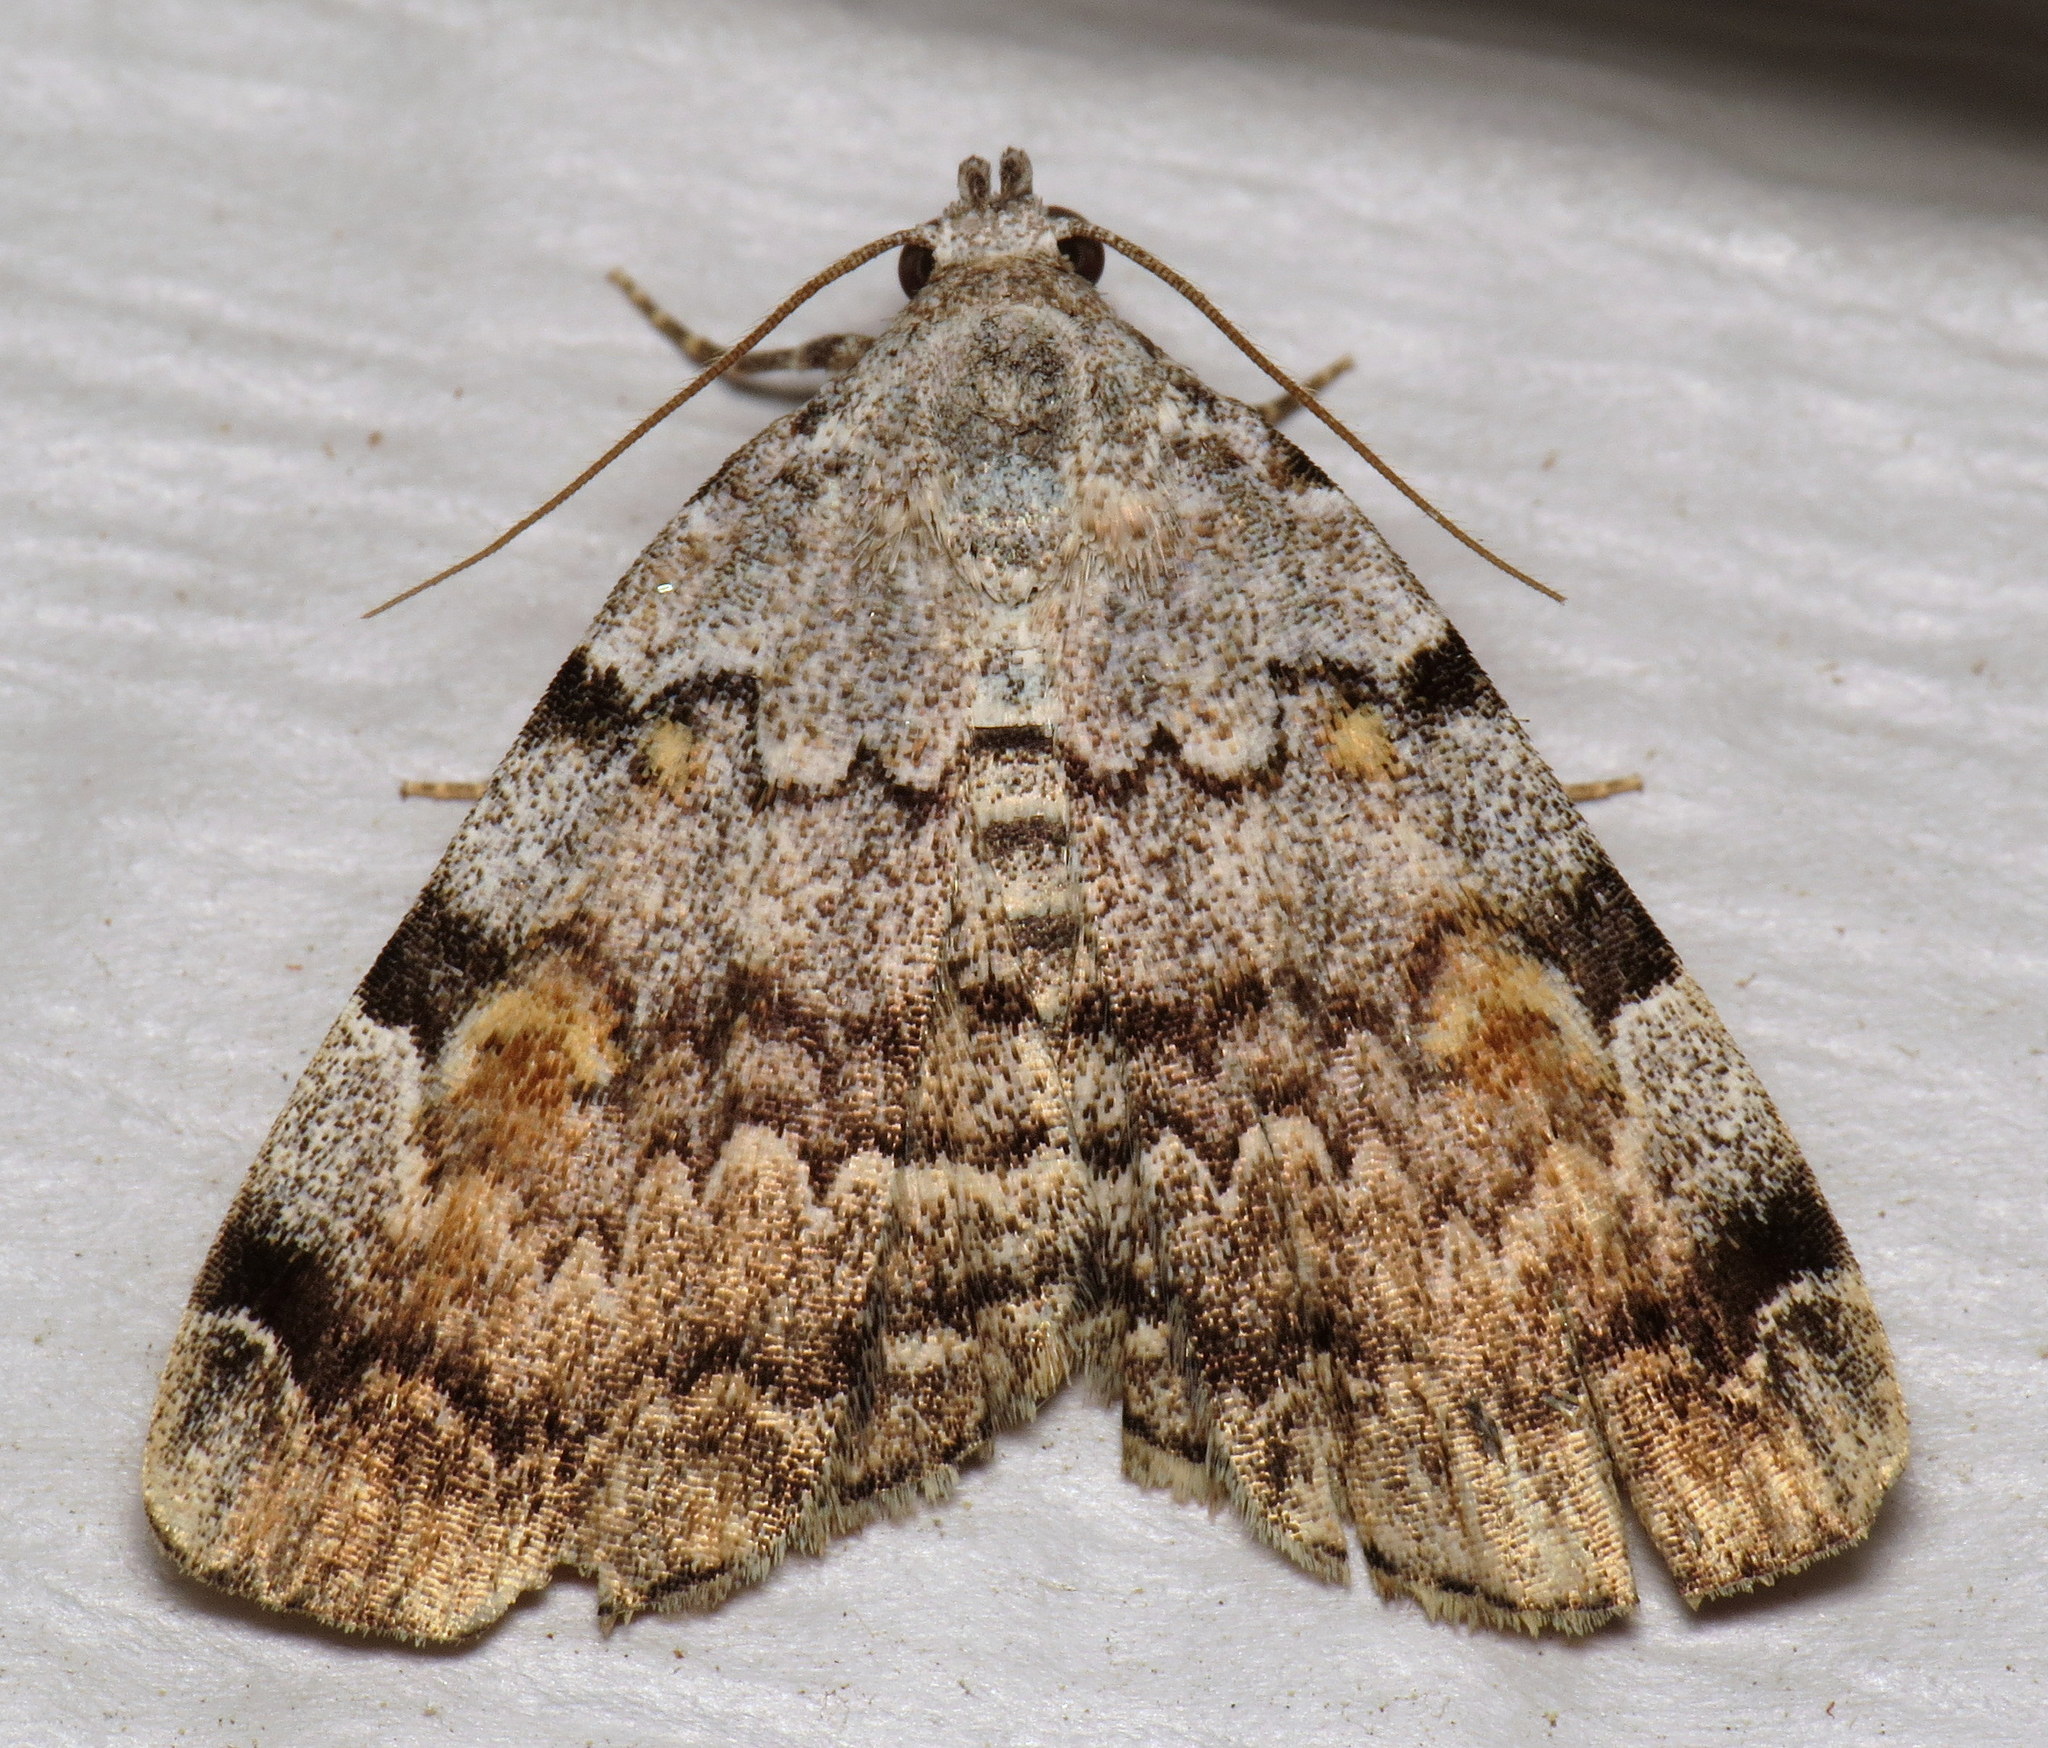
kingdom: Animalia
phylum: Arthropoda
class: Insecta
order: Lepidoptera
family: Erebidae
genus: Idia
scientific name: Idia americalis
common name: American idia moth
